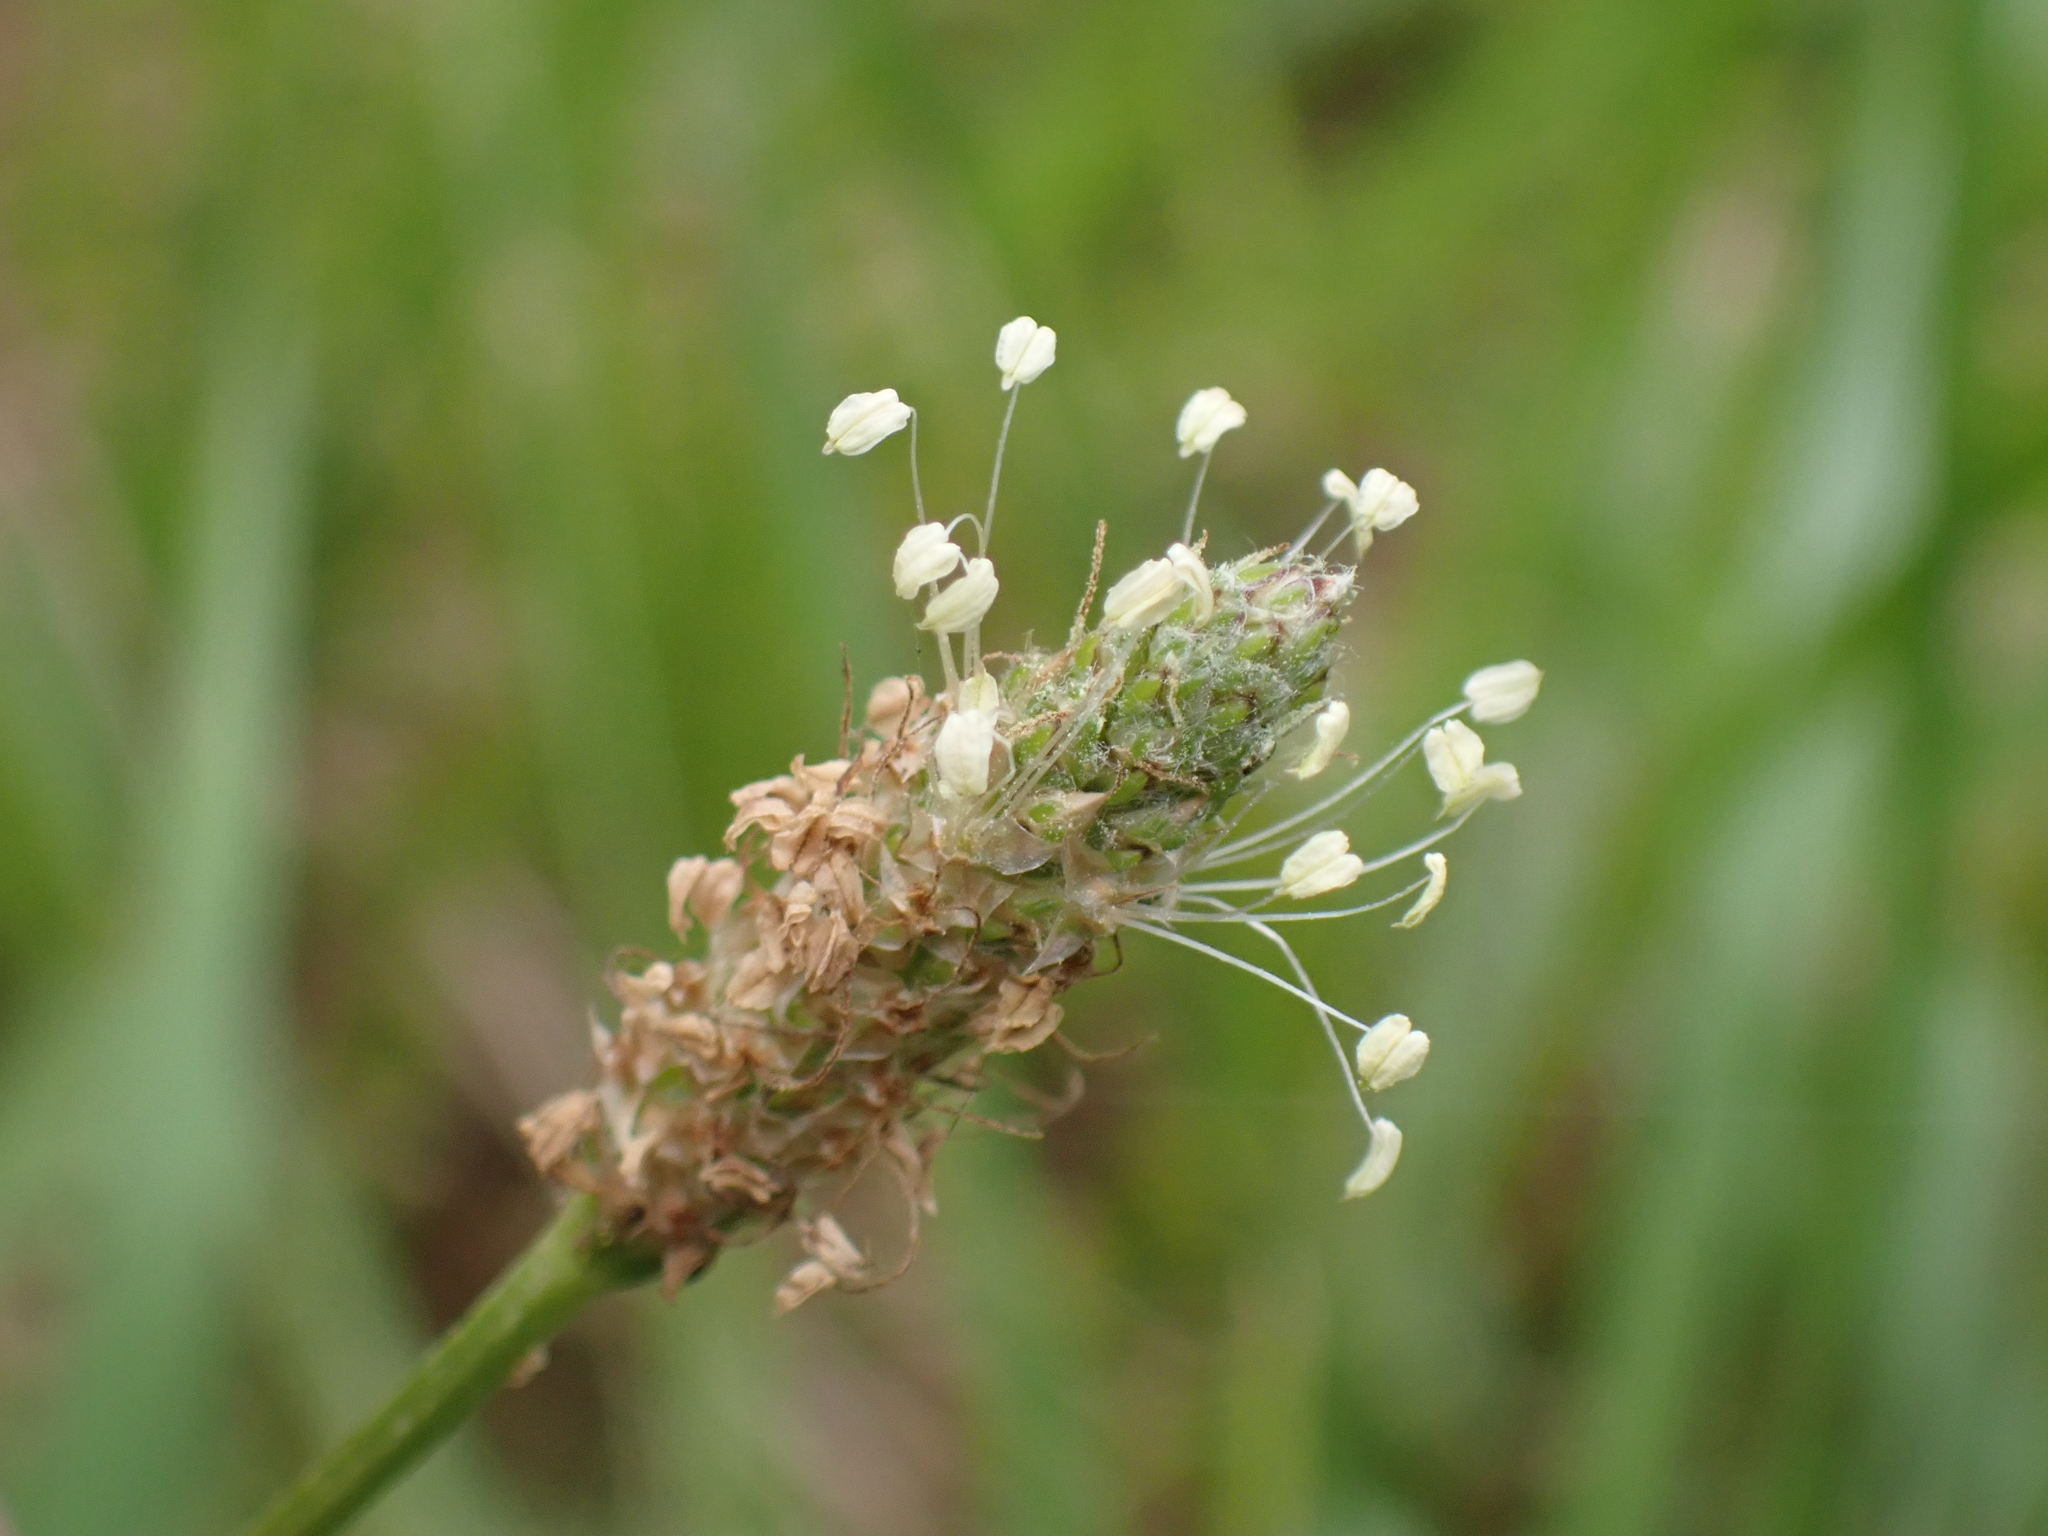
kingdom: Plantae
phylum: Tracheophyta
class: Magnoliopsida
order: Lamiales
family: Plantaginaceae
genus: Plantago
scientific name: Plantago lanceolata
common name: Ribwort plantain
